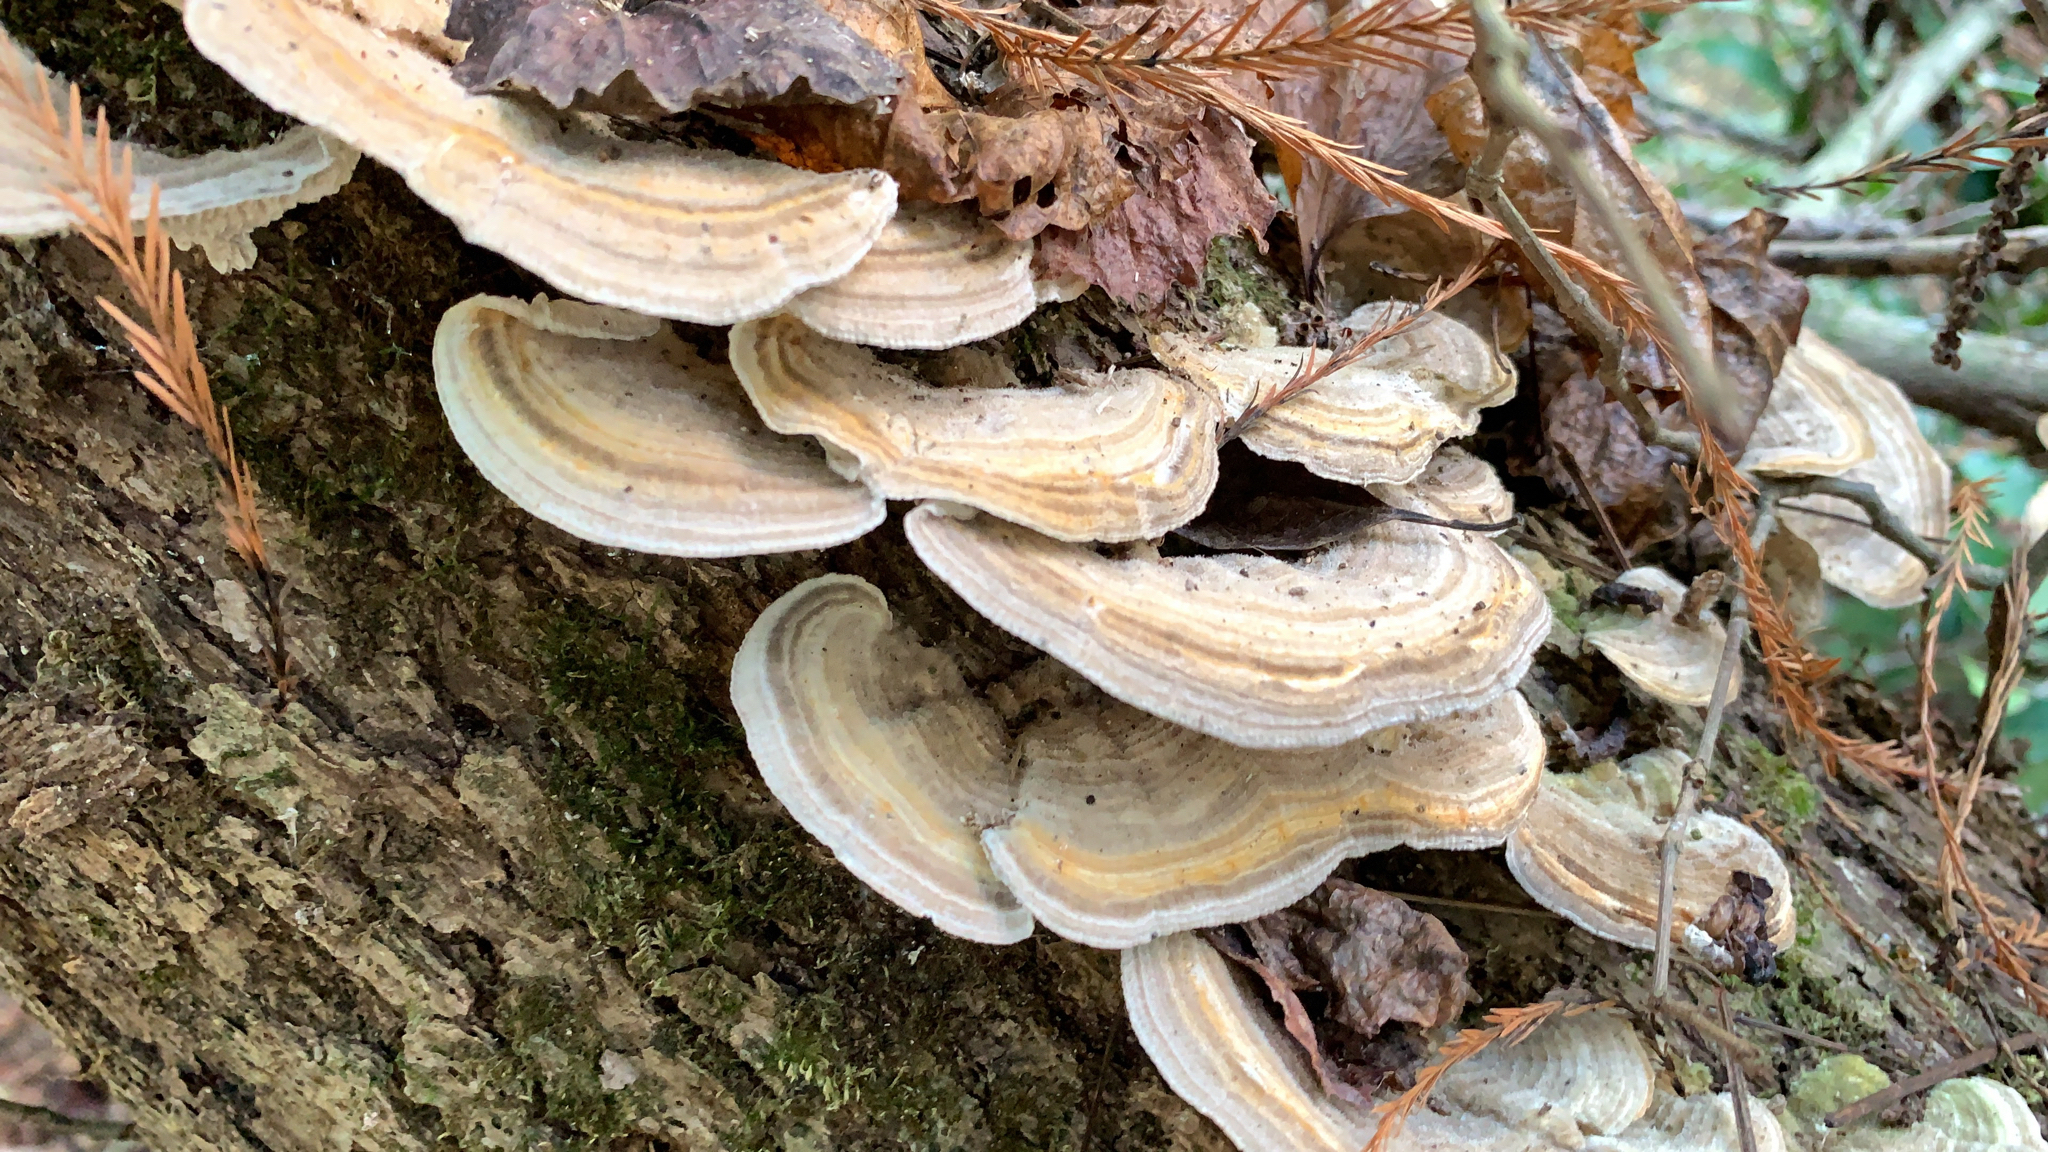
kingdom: Fungi
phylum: Basidiomycota
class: Agaricomycetes
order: Polyporales
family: Polyporaceae
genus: Lenzites
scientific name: Lenzites betulinus
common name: Birch mazegill
